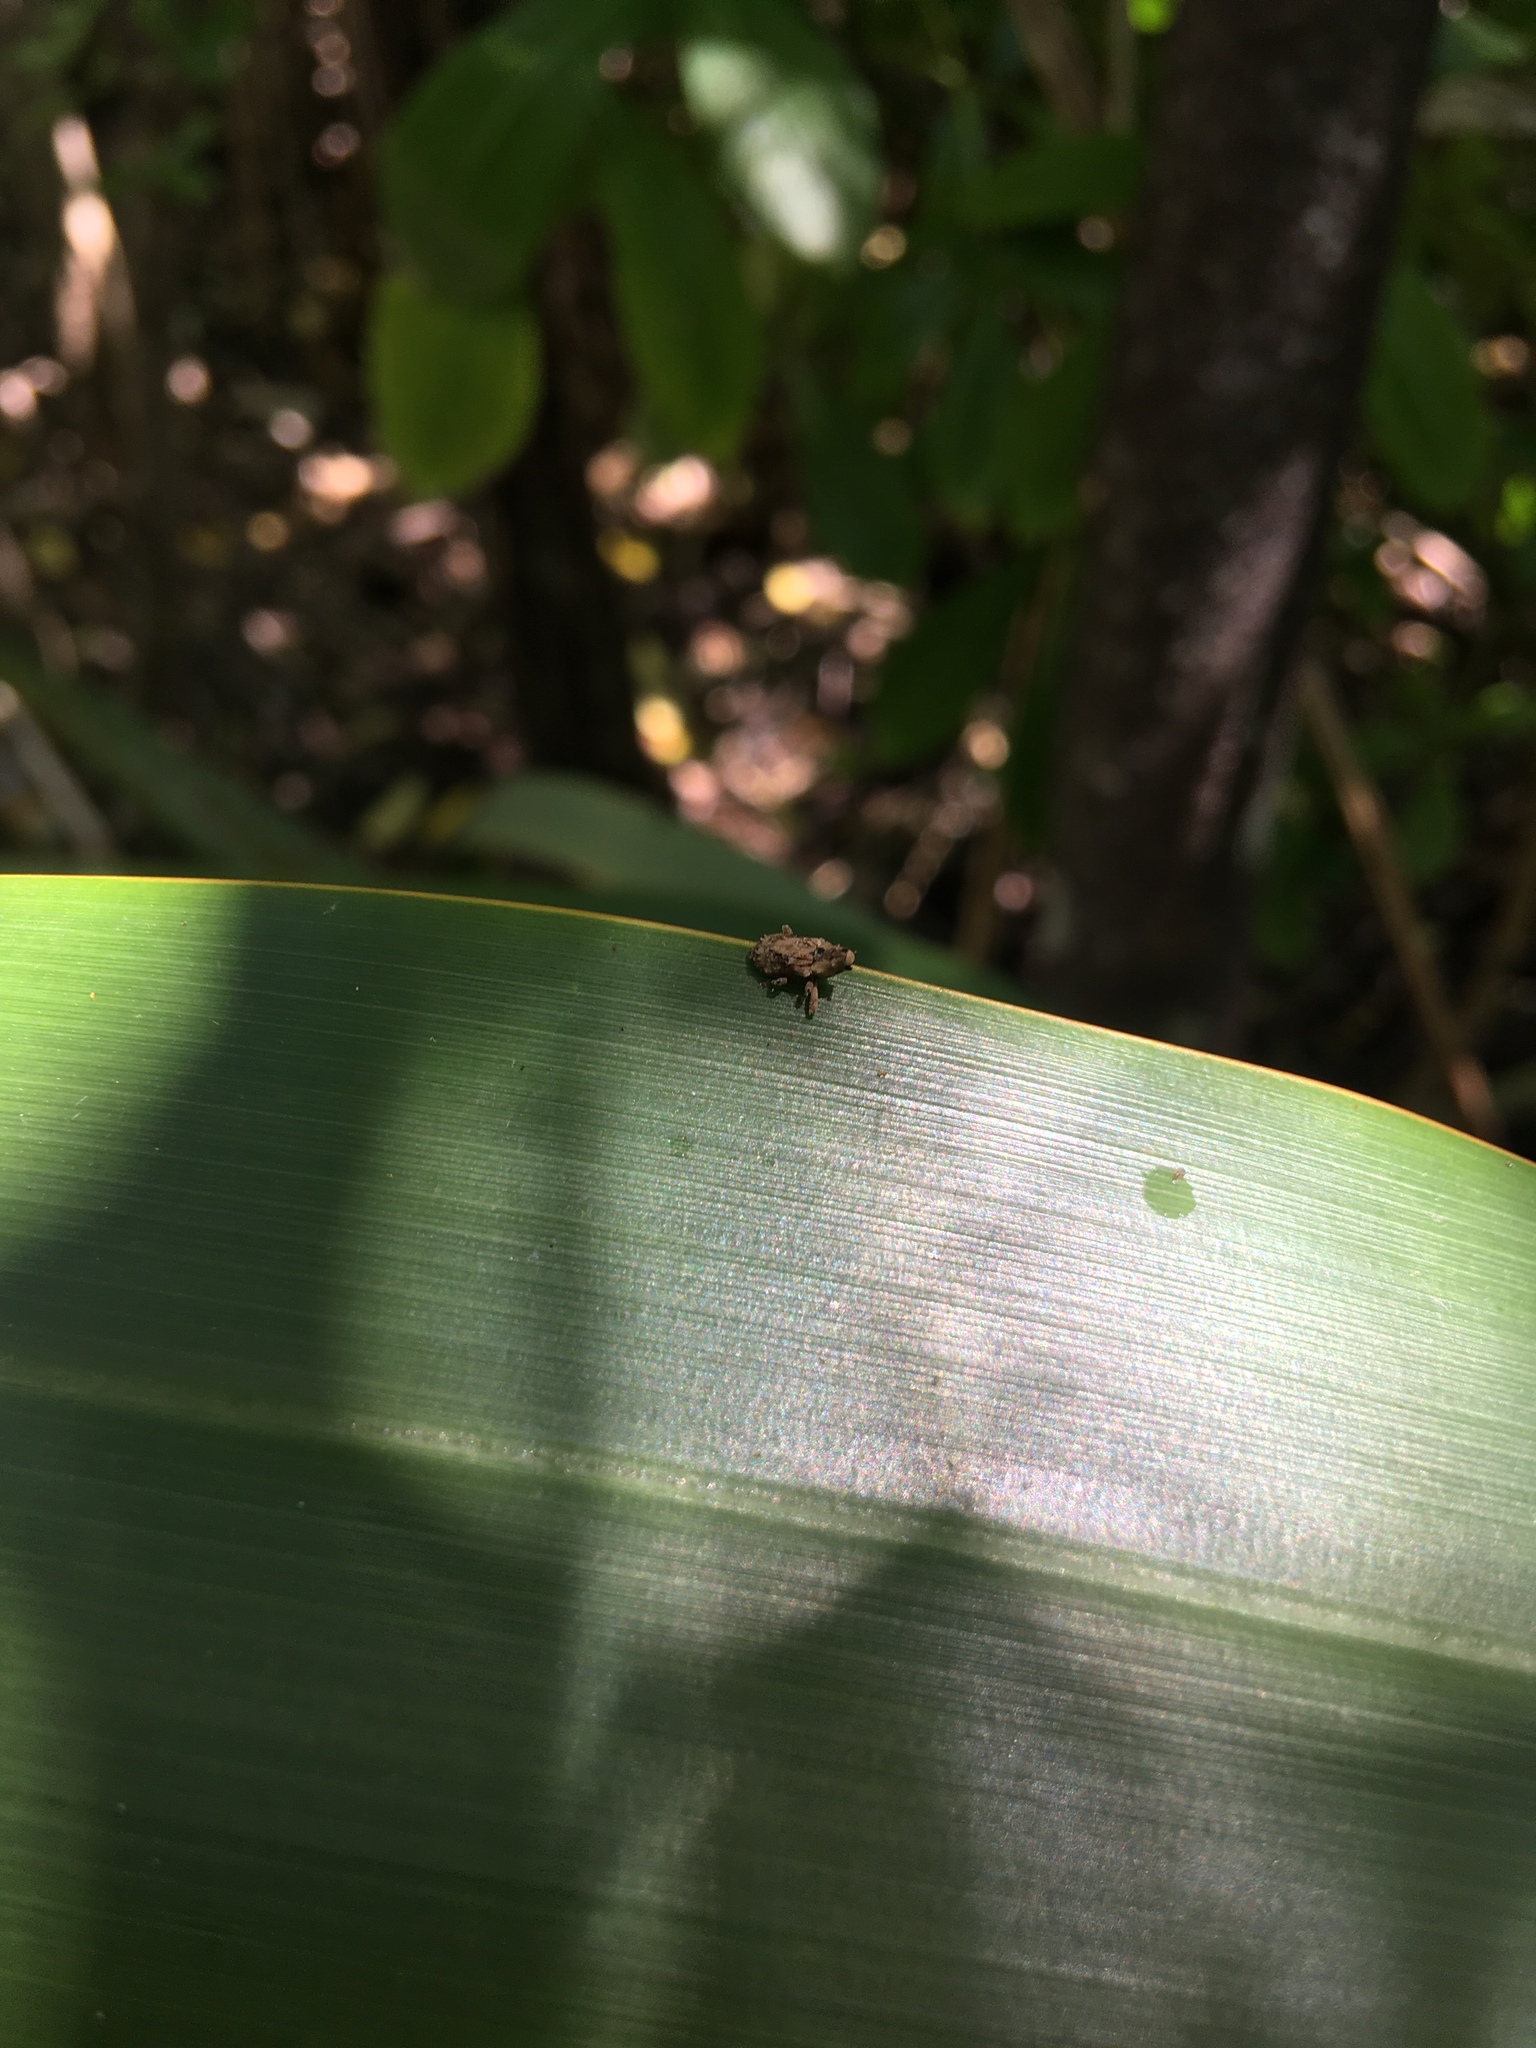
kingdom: Animalia
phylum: Arthropoda
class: Insecta
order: Coleoptera
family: Curculionidae
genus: Mecistostylus
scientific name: Mecistostylus douei
